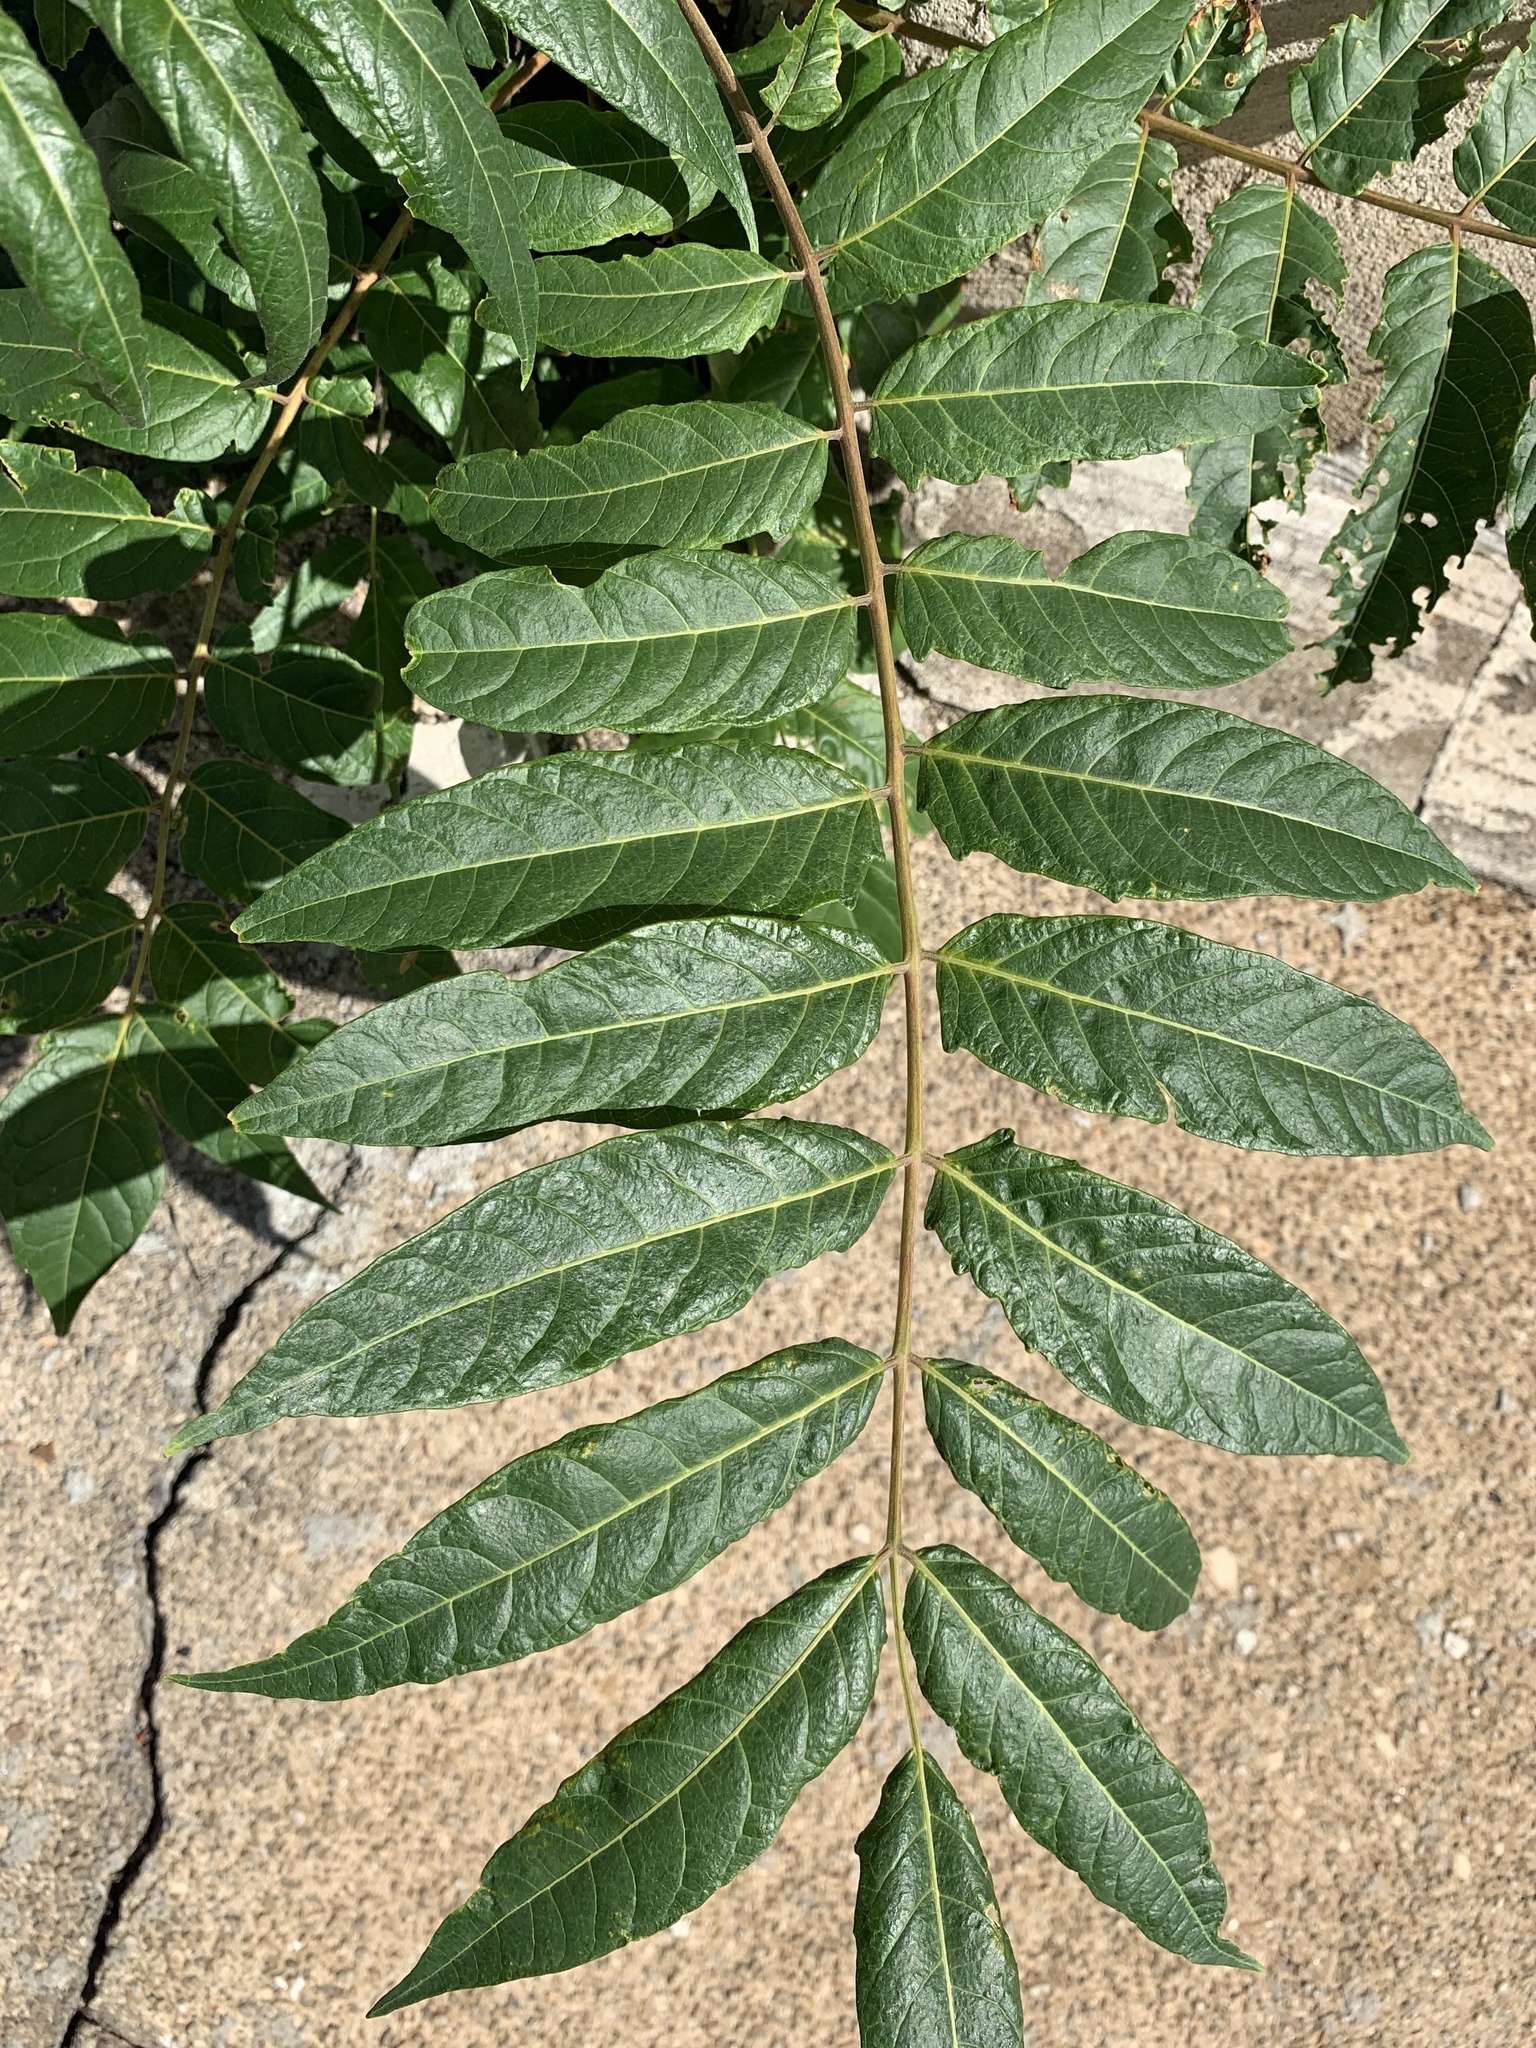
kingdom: Plantae
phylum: Tracheophyta
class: Magnoliopsida
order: Sapindales
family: Simaroubaceae
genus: Ailanthus
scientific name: Ailanthus altissima
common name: Tree-of-heaven
